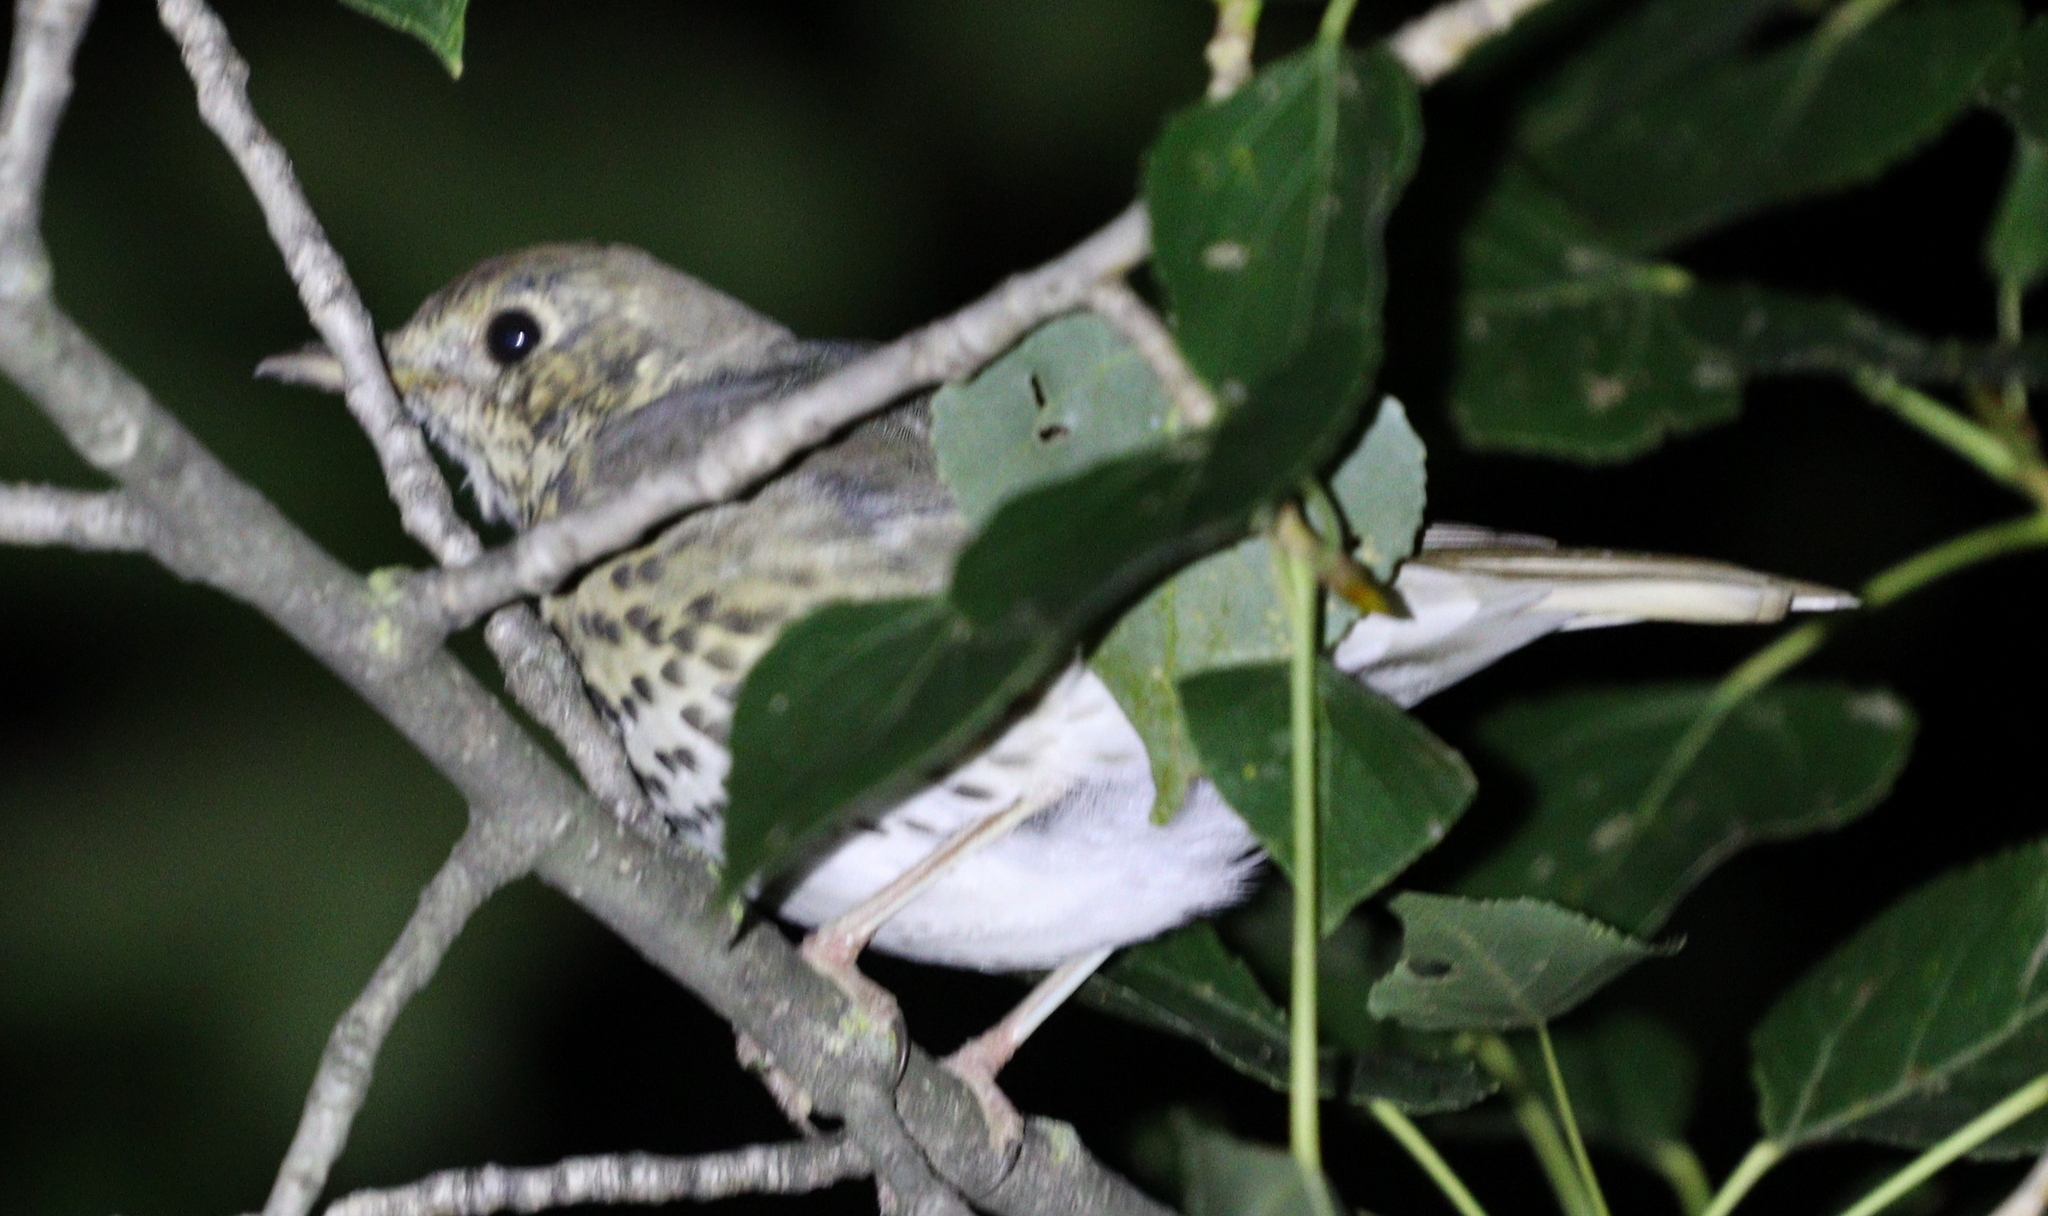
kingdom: Animalia
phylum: Chordata
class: Aves
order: Passeriformes
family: Turdidae
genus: Turdus
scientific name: Turdus philomelos
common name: Song thrush
